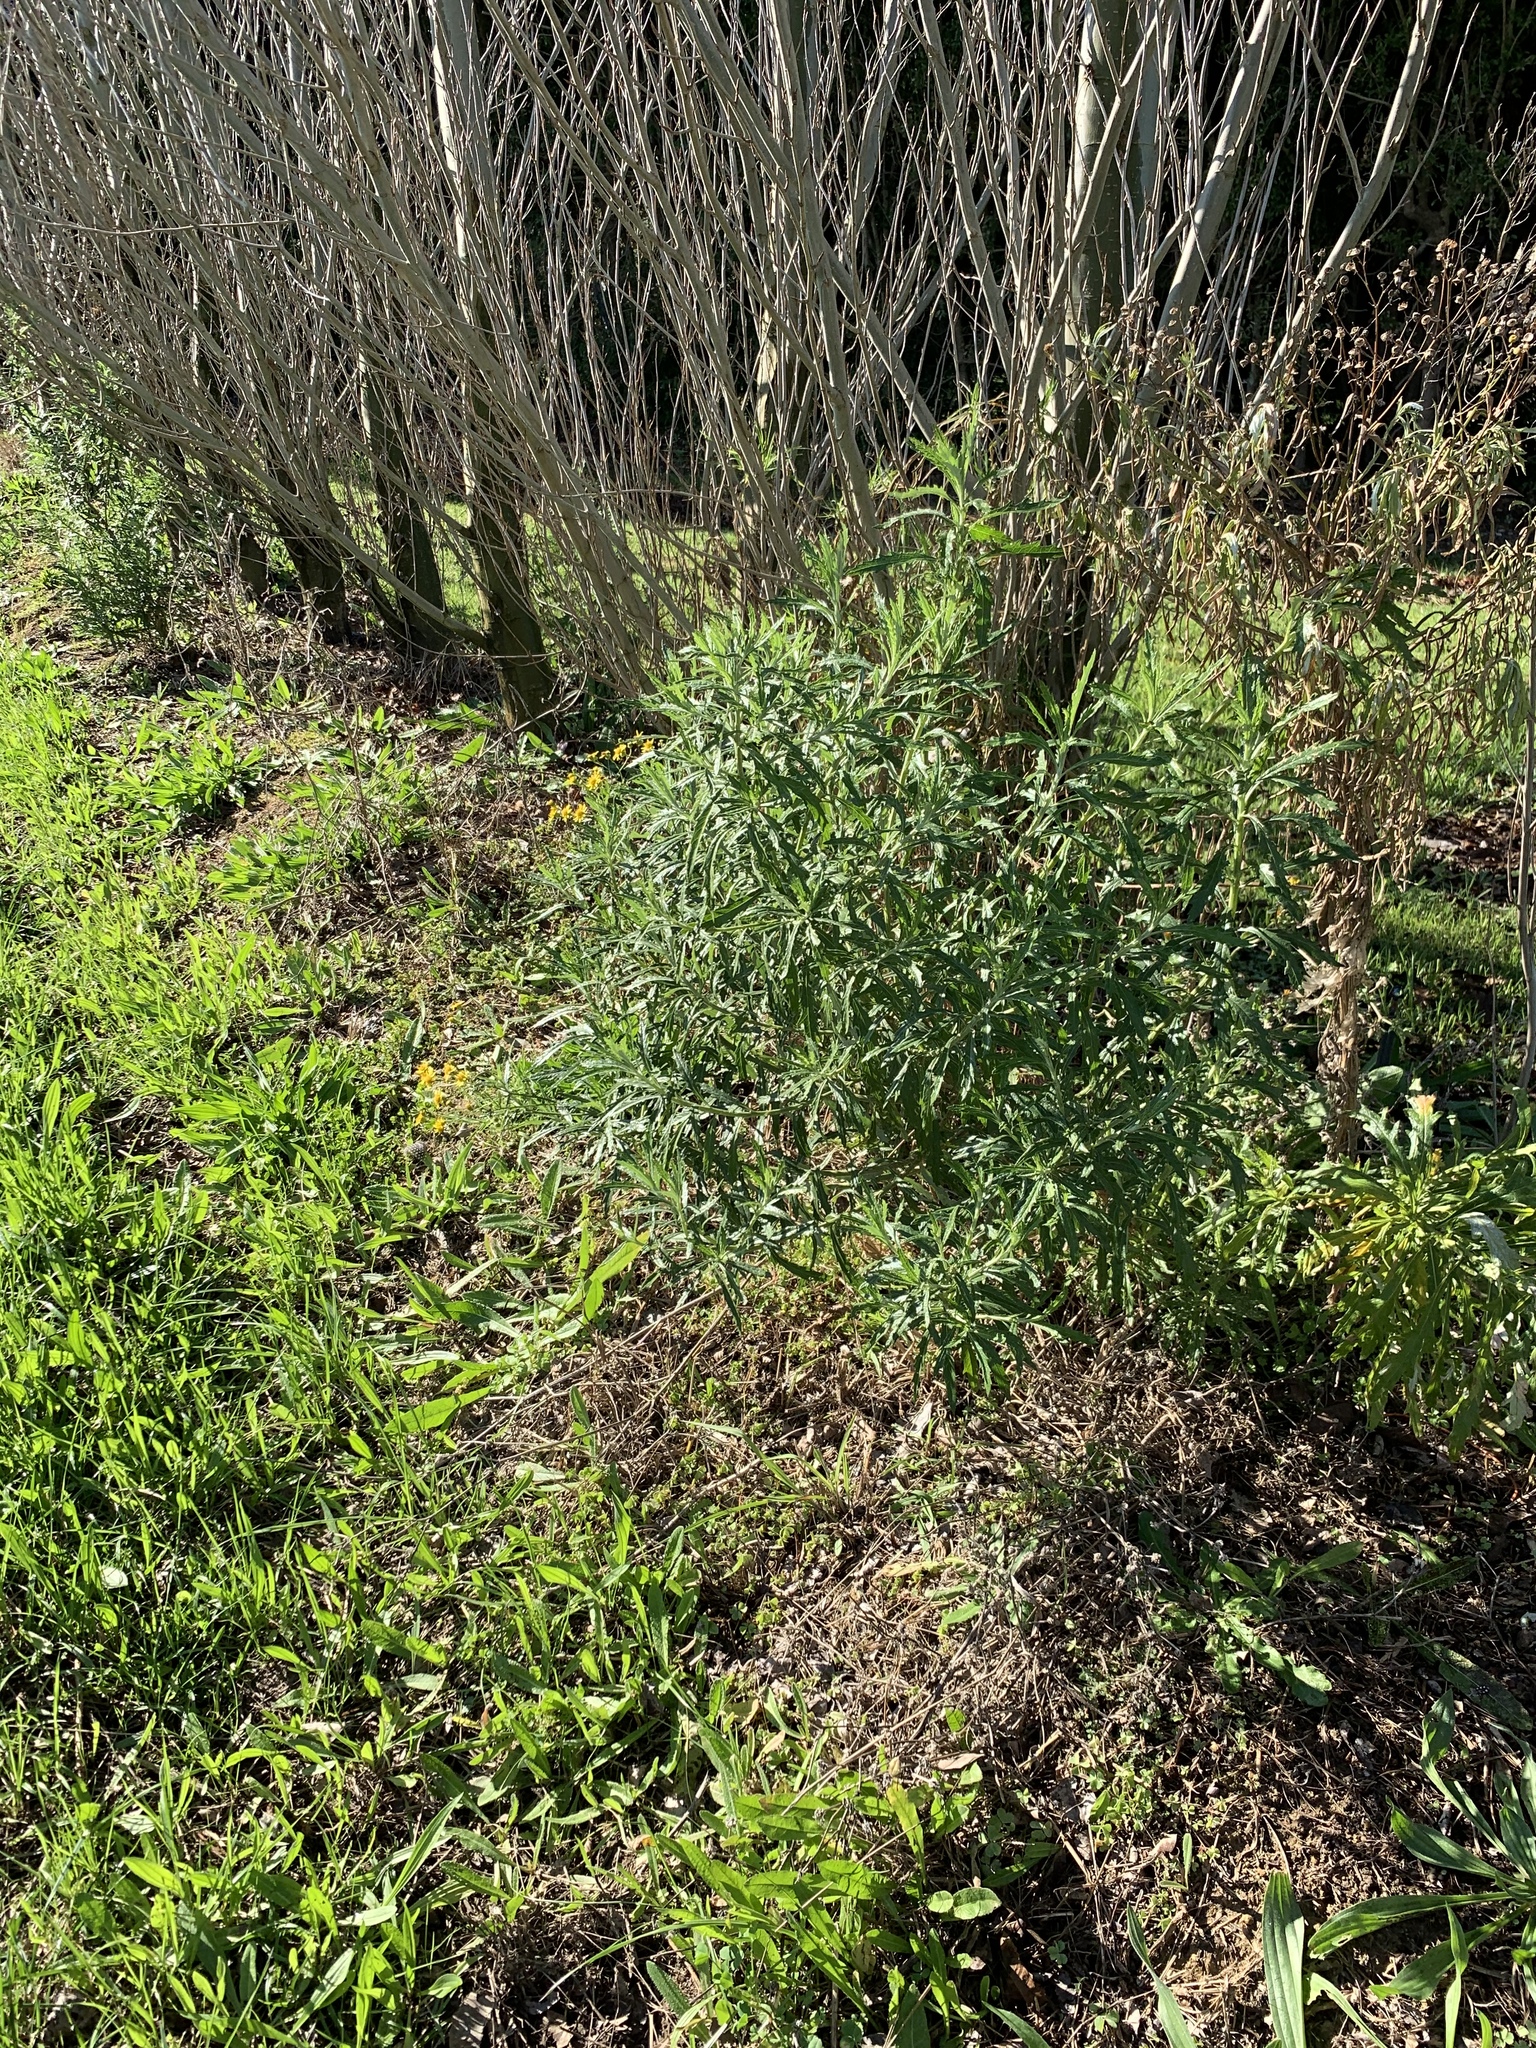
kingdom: Plantae
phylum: Tracheophyta
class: Magnoliopsida
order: Asterales
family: Asteraceae
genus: Senecio
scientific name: Senecio pterophorus
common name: Shoddy ragwort
